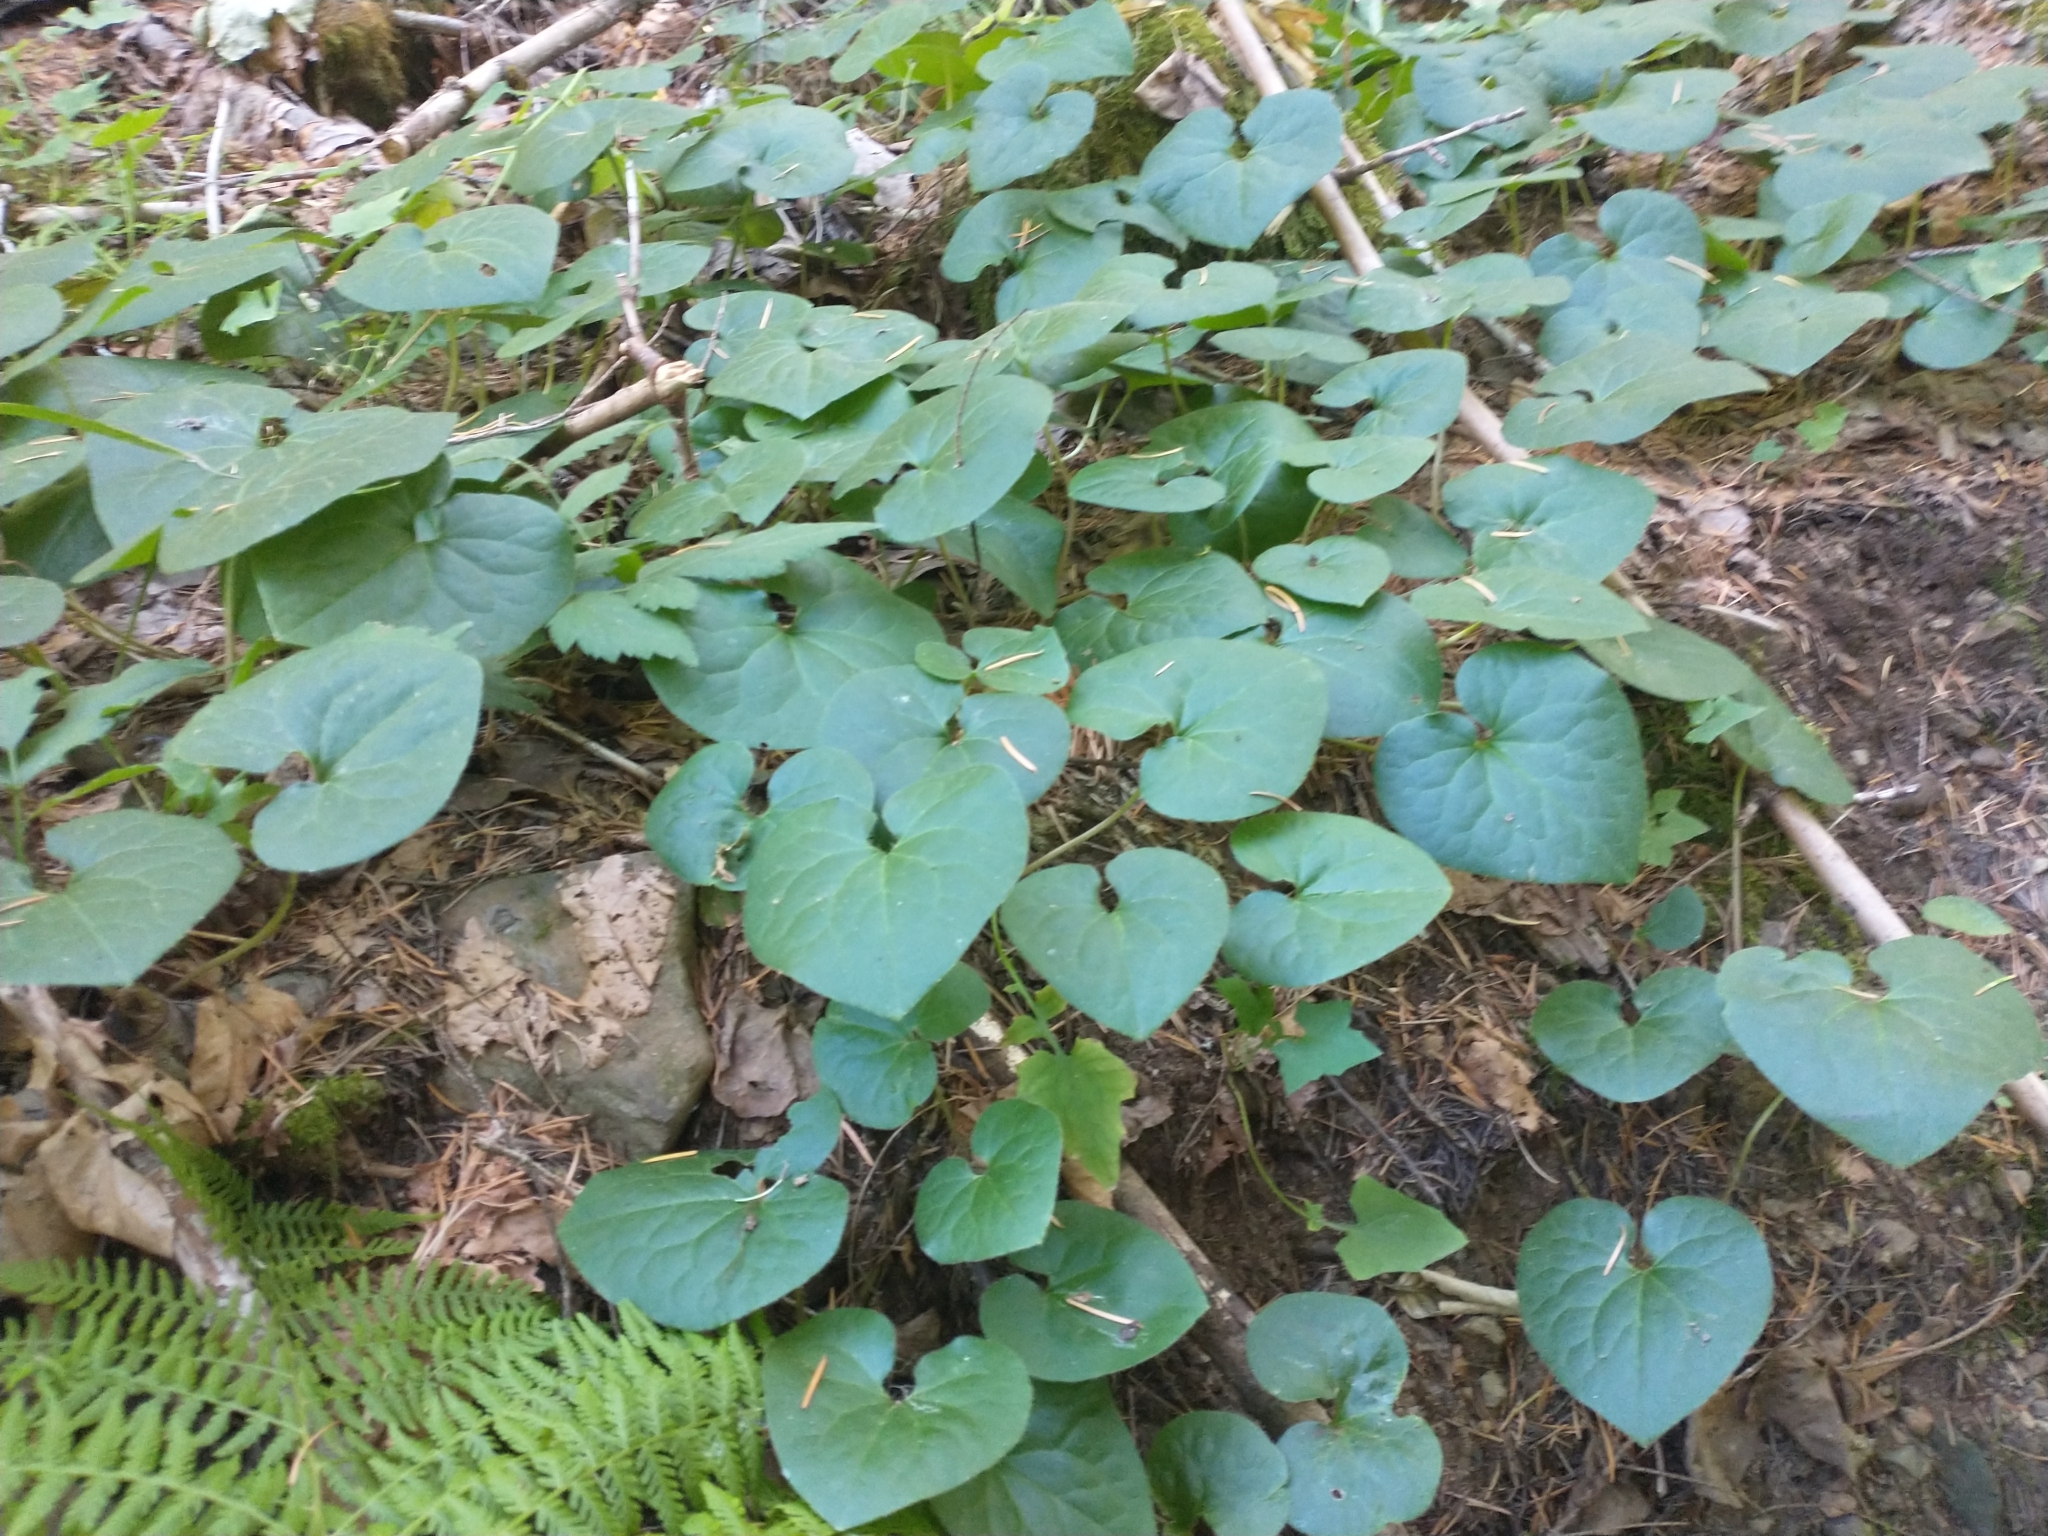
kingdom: Plantae
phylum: Tracheophyta
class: Magnoliopsida
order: Piperales
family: Aristolochiaceae
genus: Asarum
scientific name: Asarum caudatum
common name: Wild ginger
